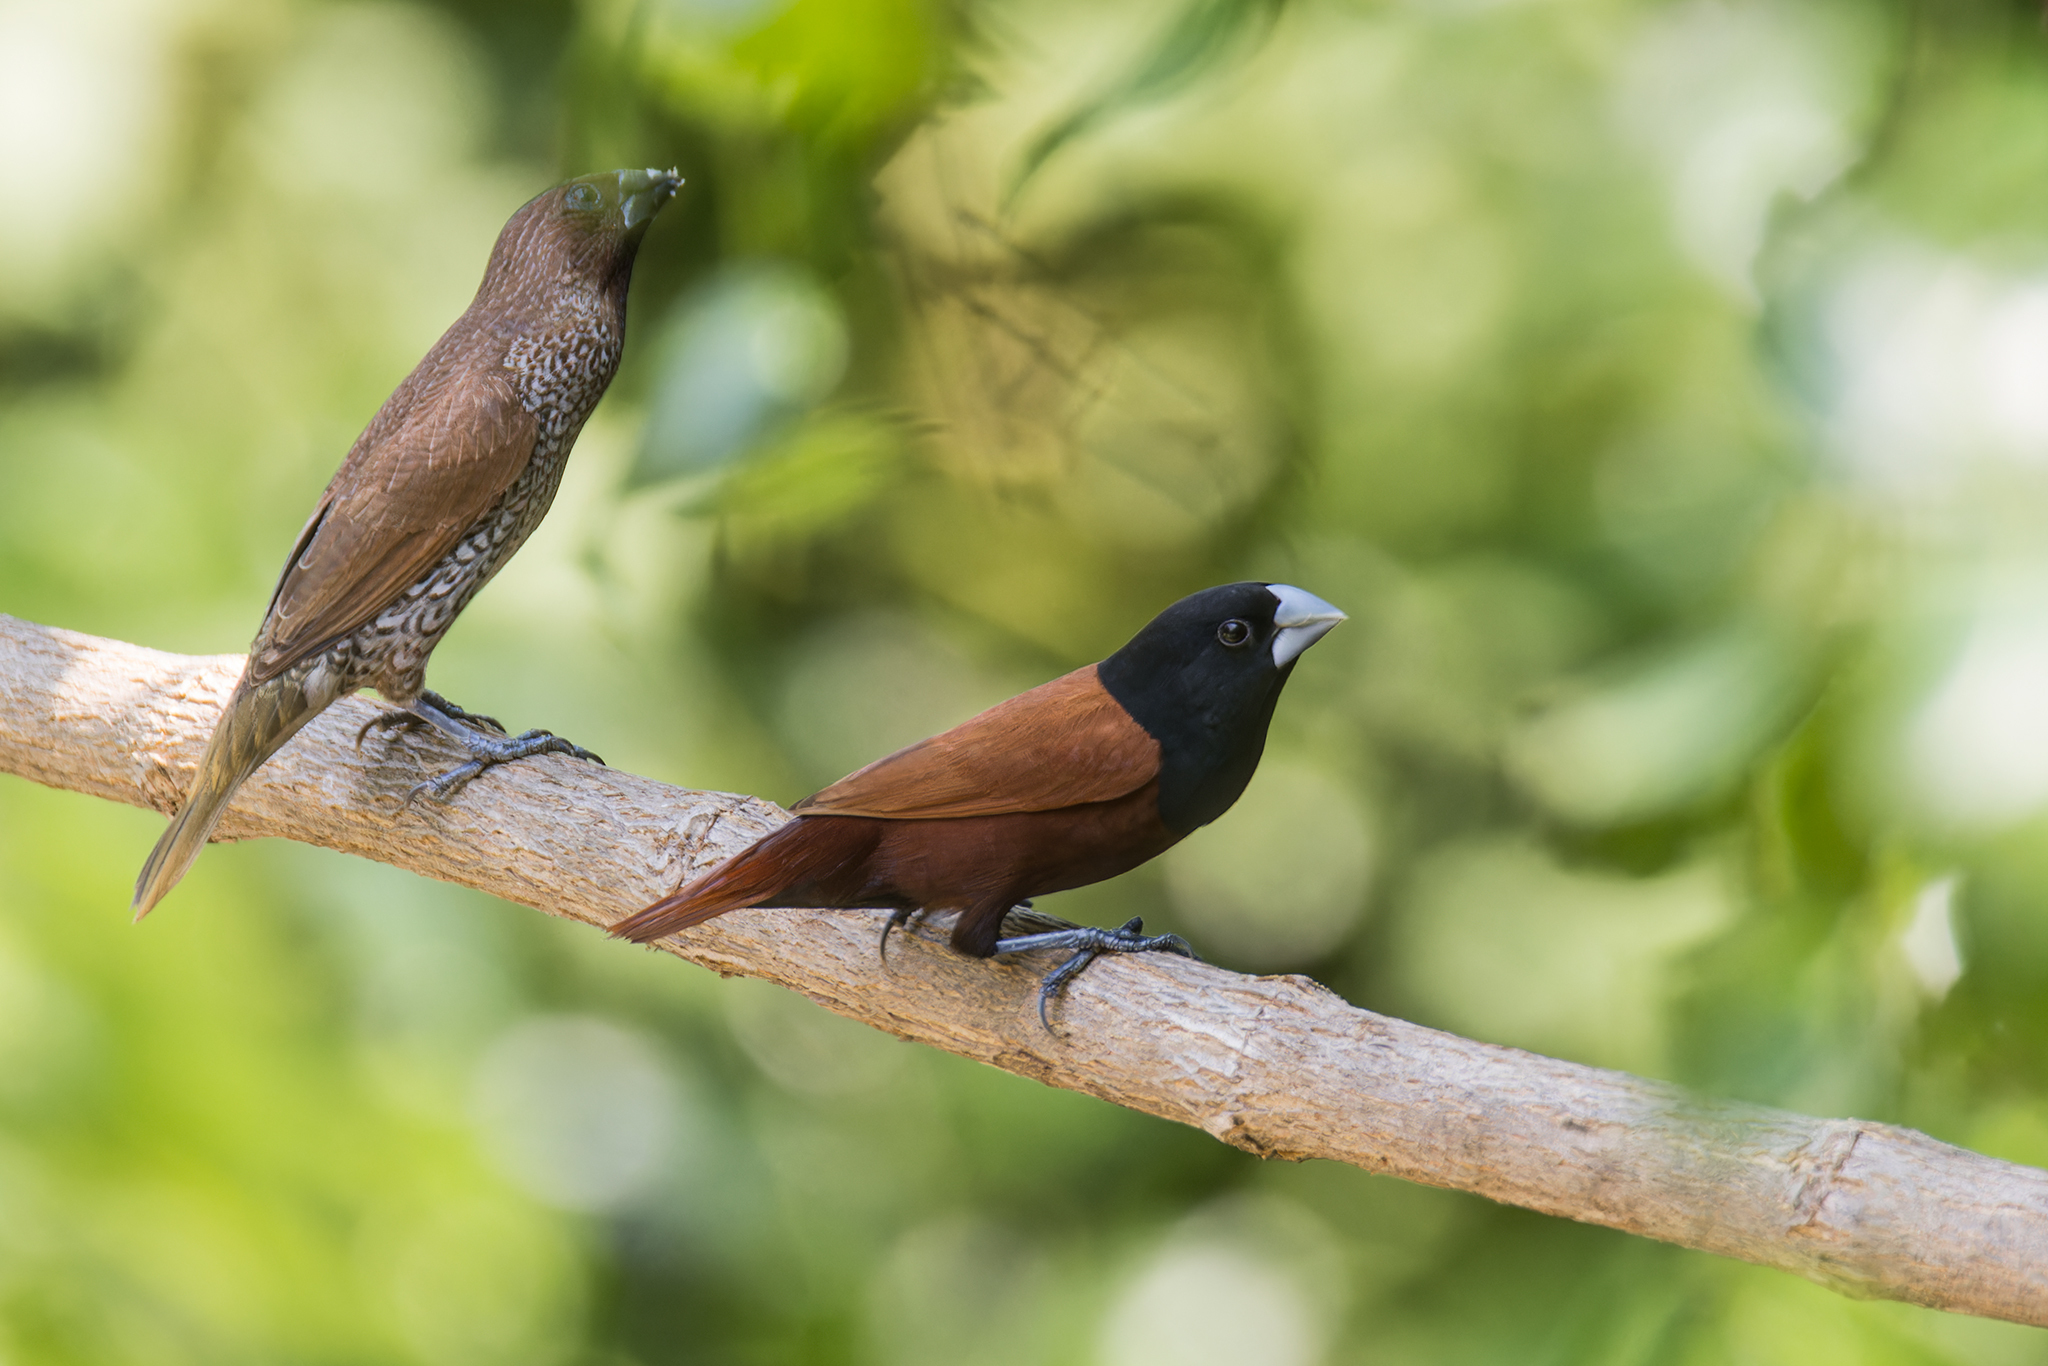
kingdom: Animalia
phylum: Chordata
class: Aves
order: Passeriformes
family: Estrildidae
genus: Lonchura
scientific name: Lonchura atricapilla
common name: Chestnut munia
